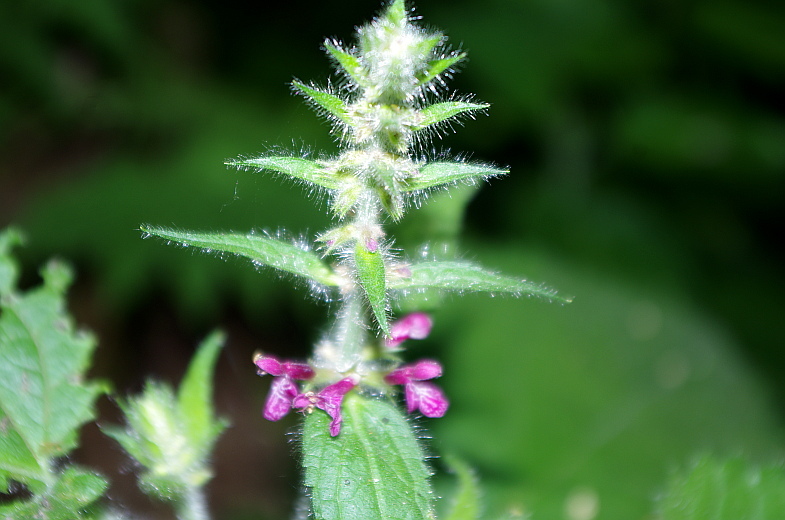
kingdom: Plantae
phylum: Tracheophyta
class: Magnoliopsida
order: Lamiales
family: Lamiaceae
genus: Stachys
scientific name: Stachys sylvatica
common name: Hedge woundwort
